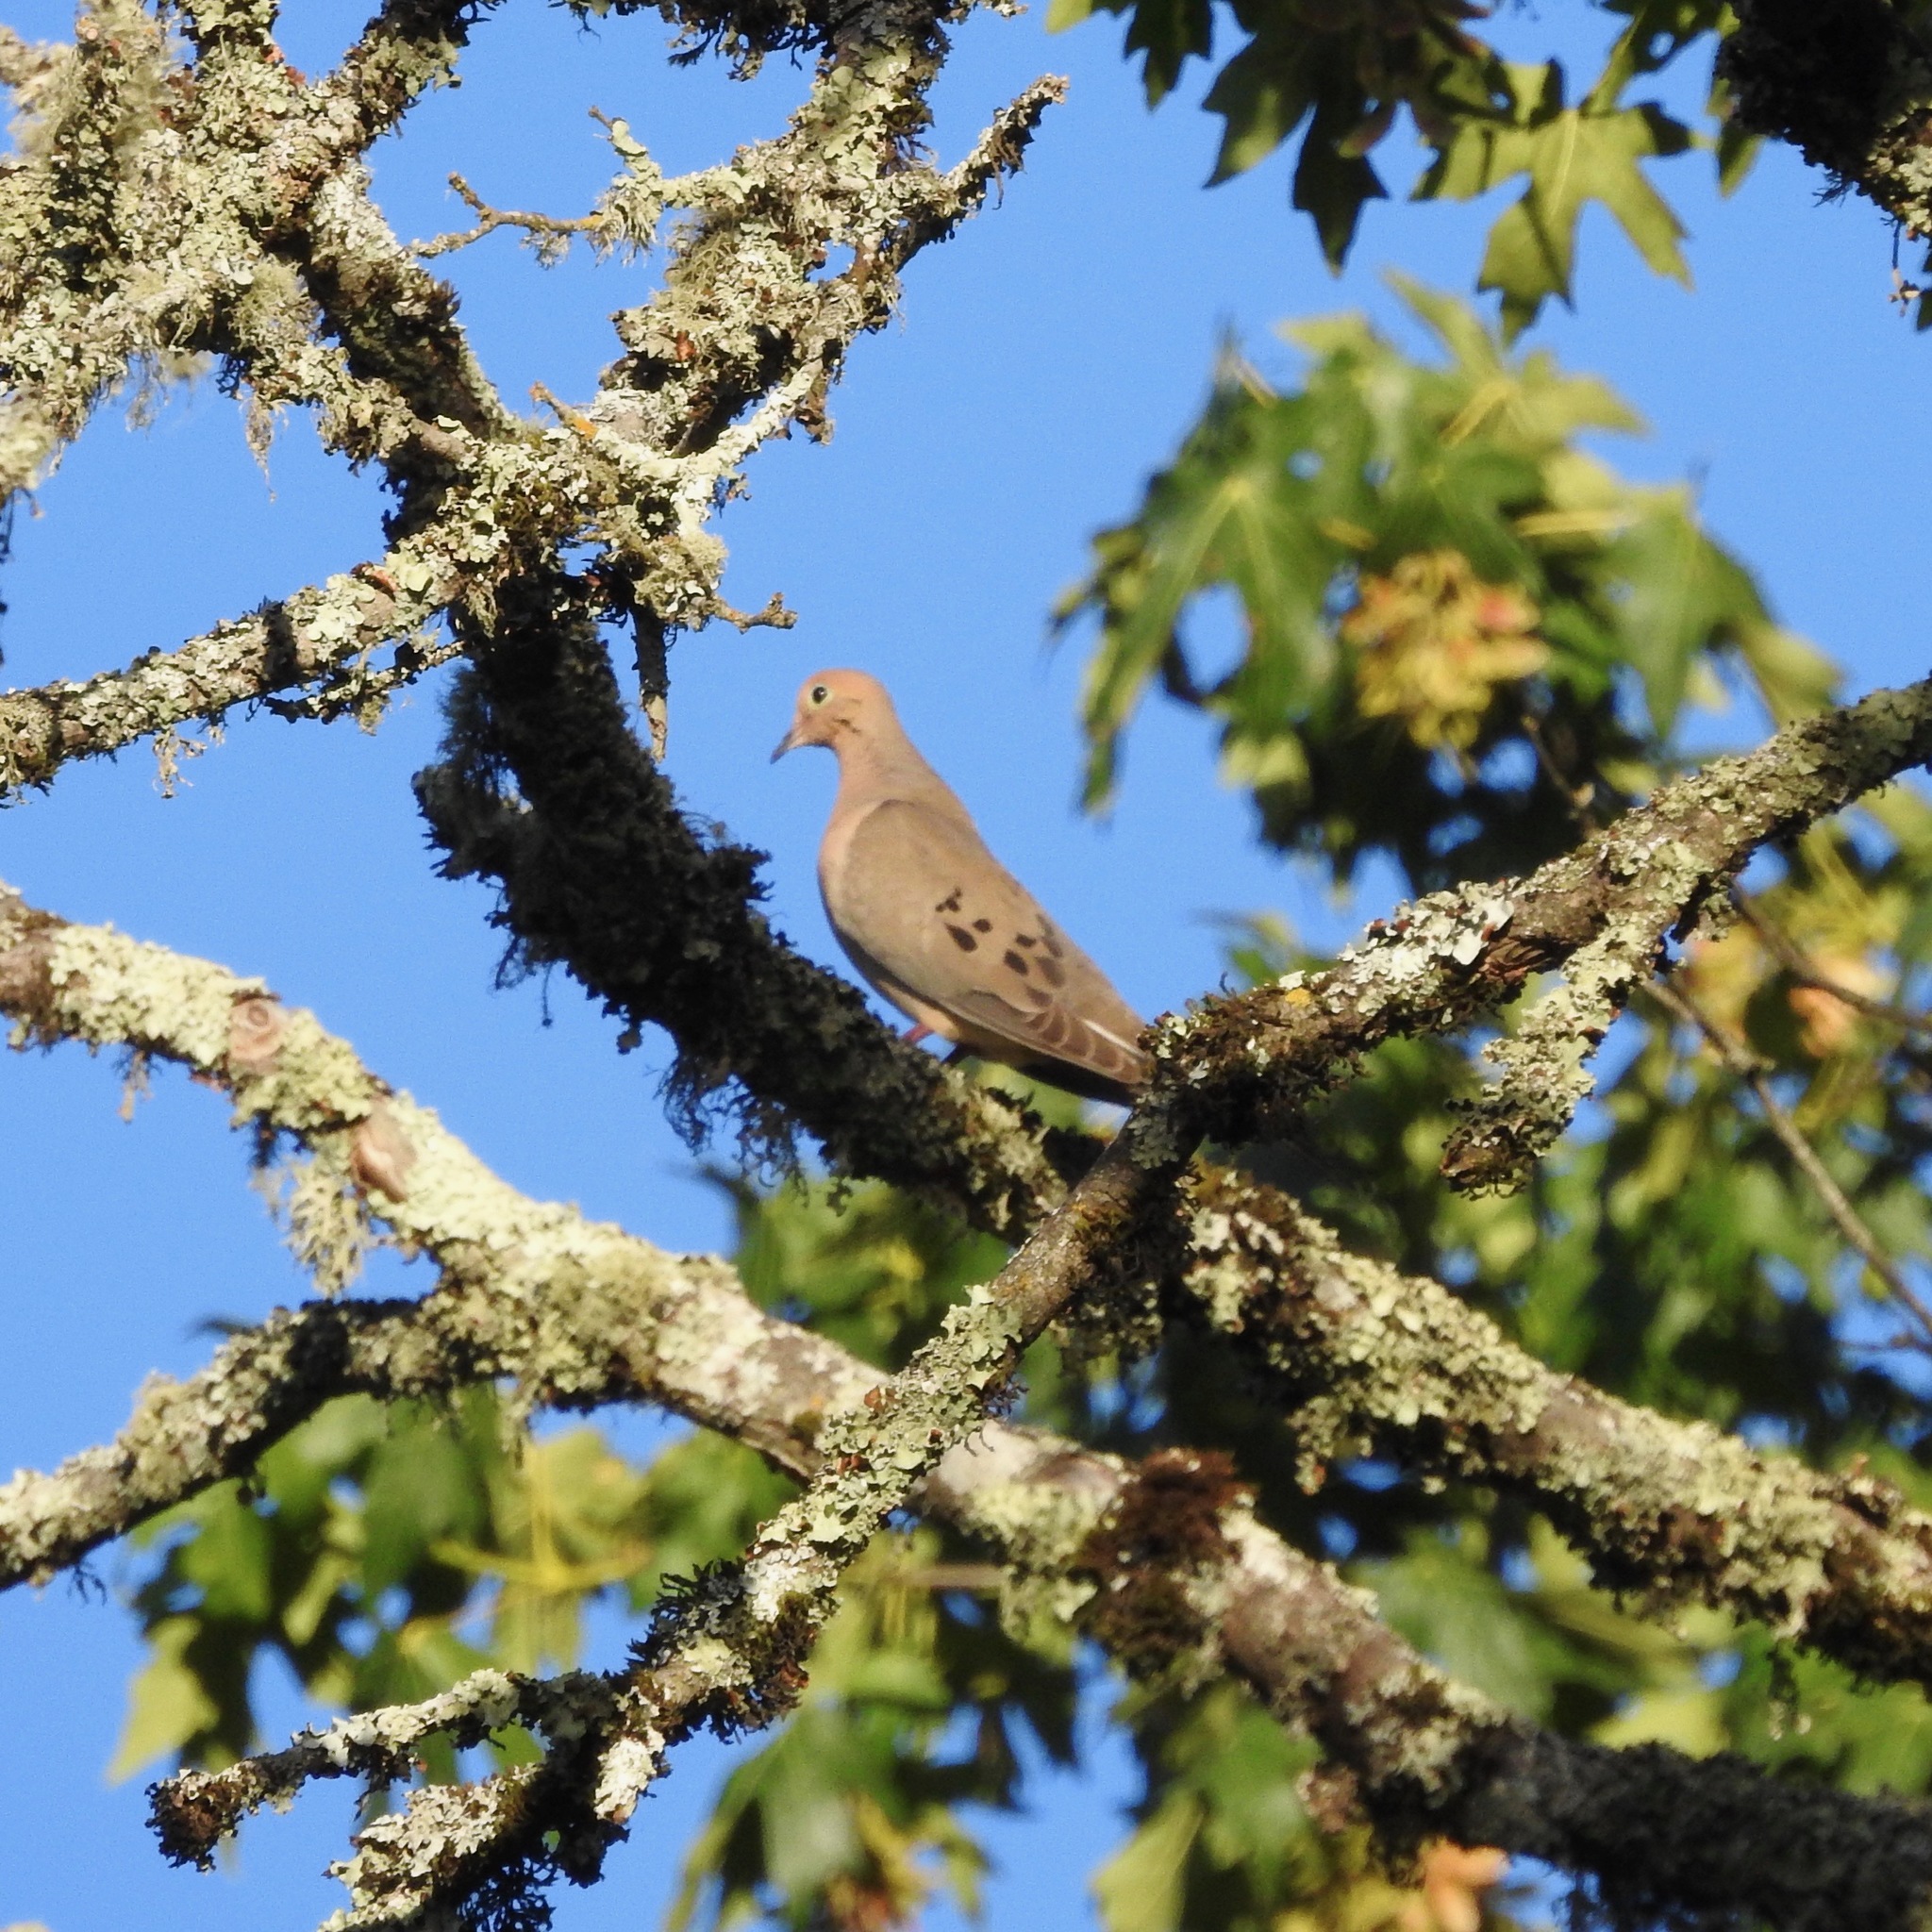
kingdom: Animalia
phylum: Chordata
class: Aves
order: Columbiformes
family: Columbidae
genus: Zenaida
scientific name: Zenaida macroura
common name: Mourning dove
